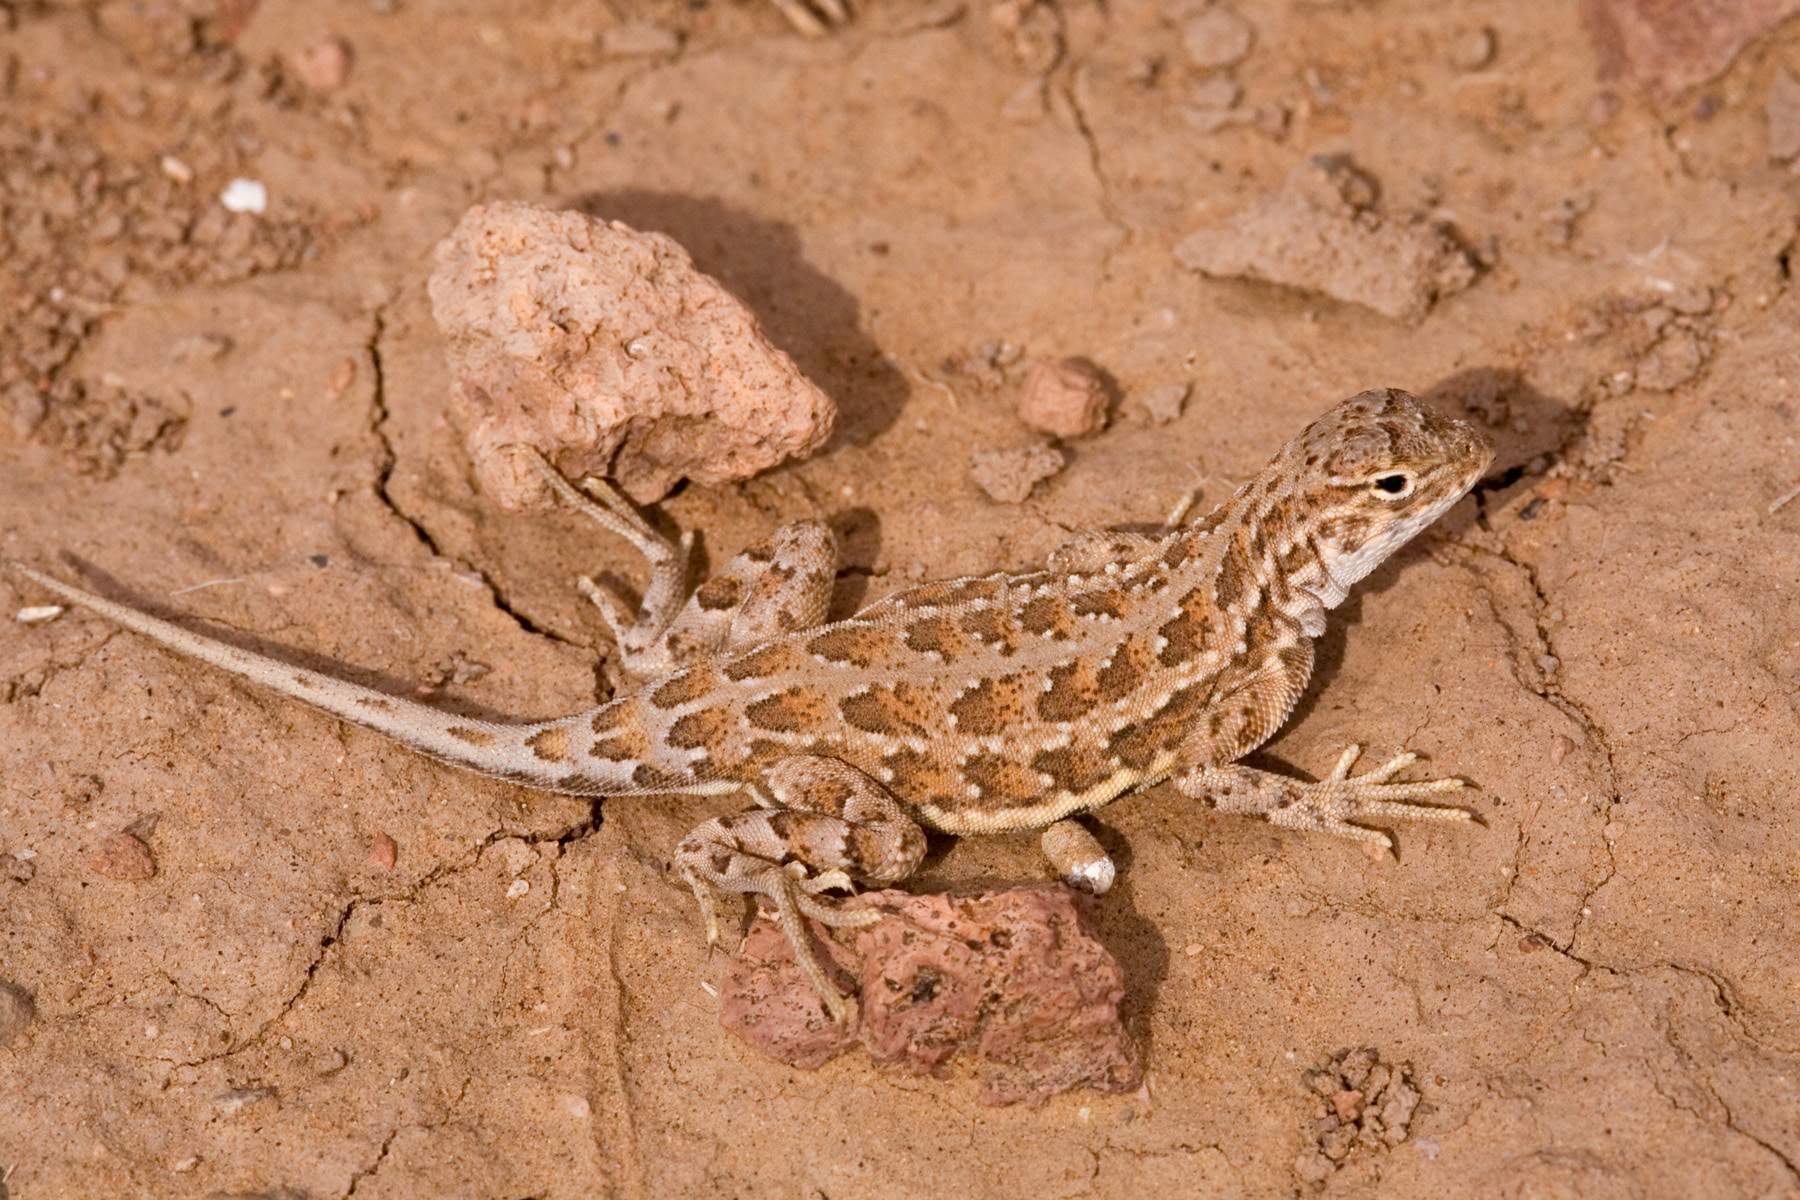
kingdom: Animalia
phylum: Chordata
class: Squamata
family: Phrynosomatidae
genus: Holbrookia
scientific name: Holbrookia maculata
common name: Lesser earless lizard
